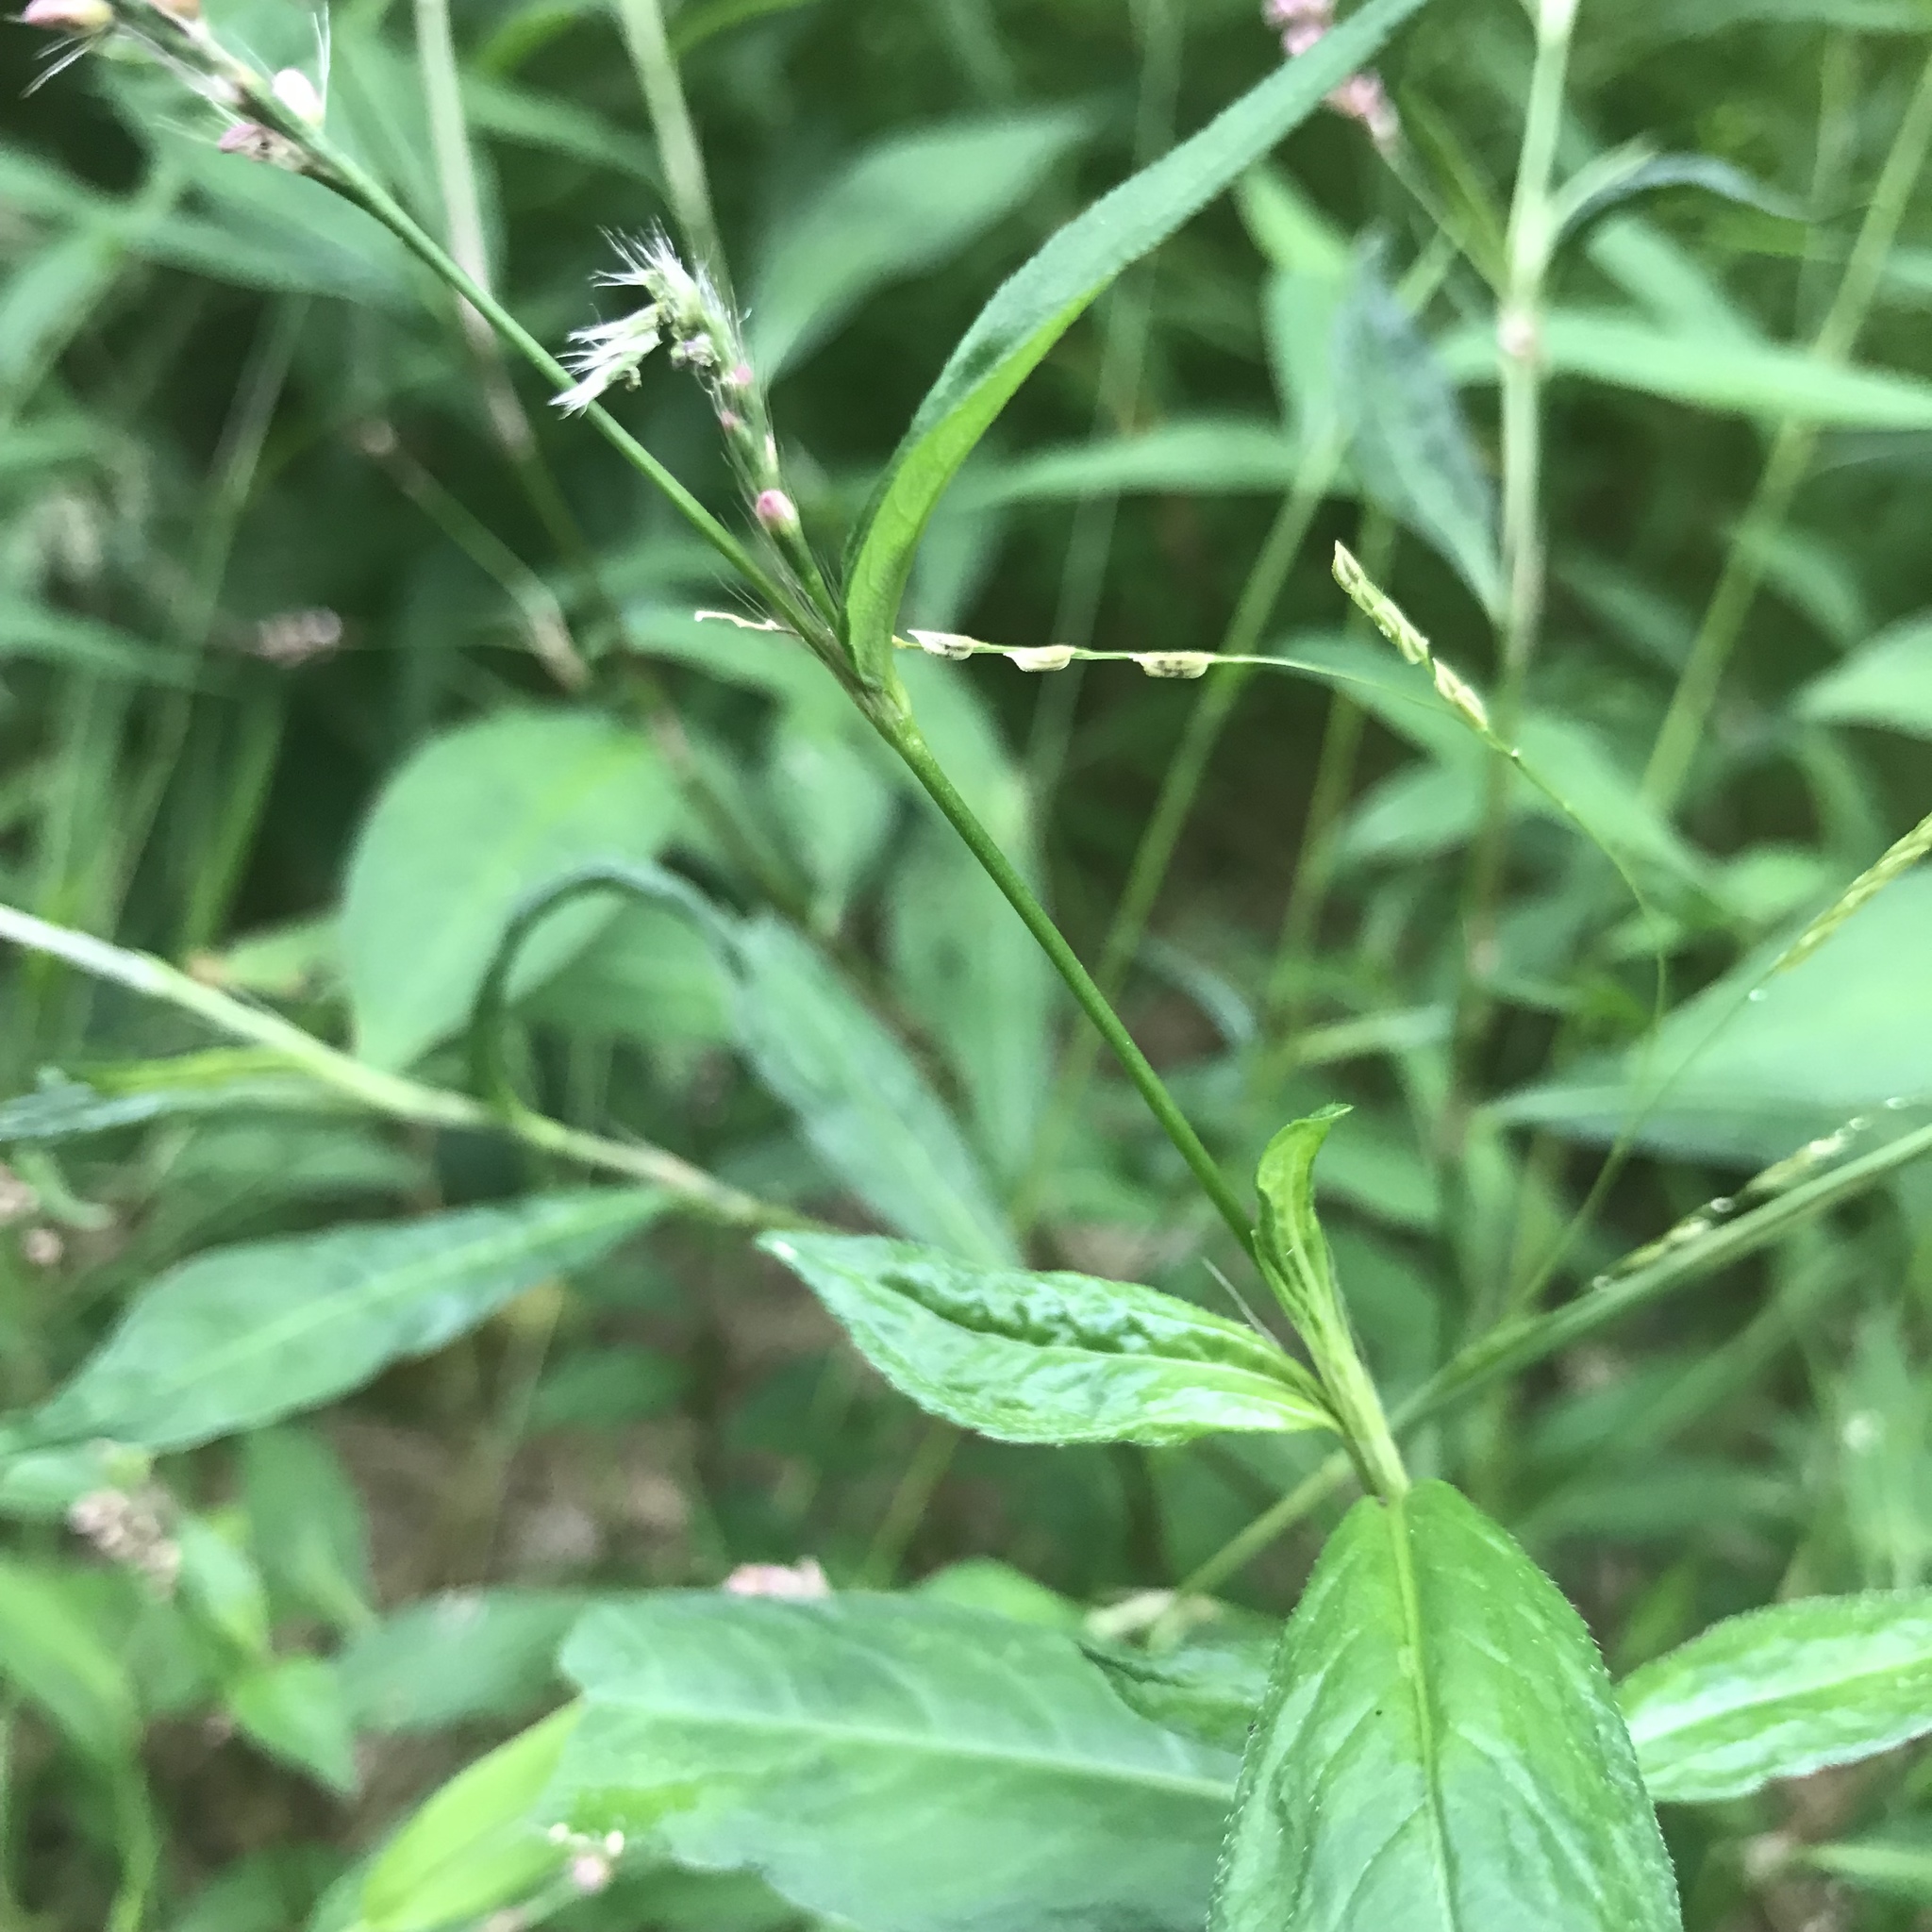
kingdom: Plantae
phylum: Tracheophyta
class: Magnoliopsida
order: Caryophyllales
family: Polygonaceae
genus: Persicaria
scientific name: Persicaria longiseta
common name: Bristly lady's-thumb
